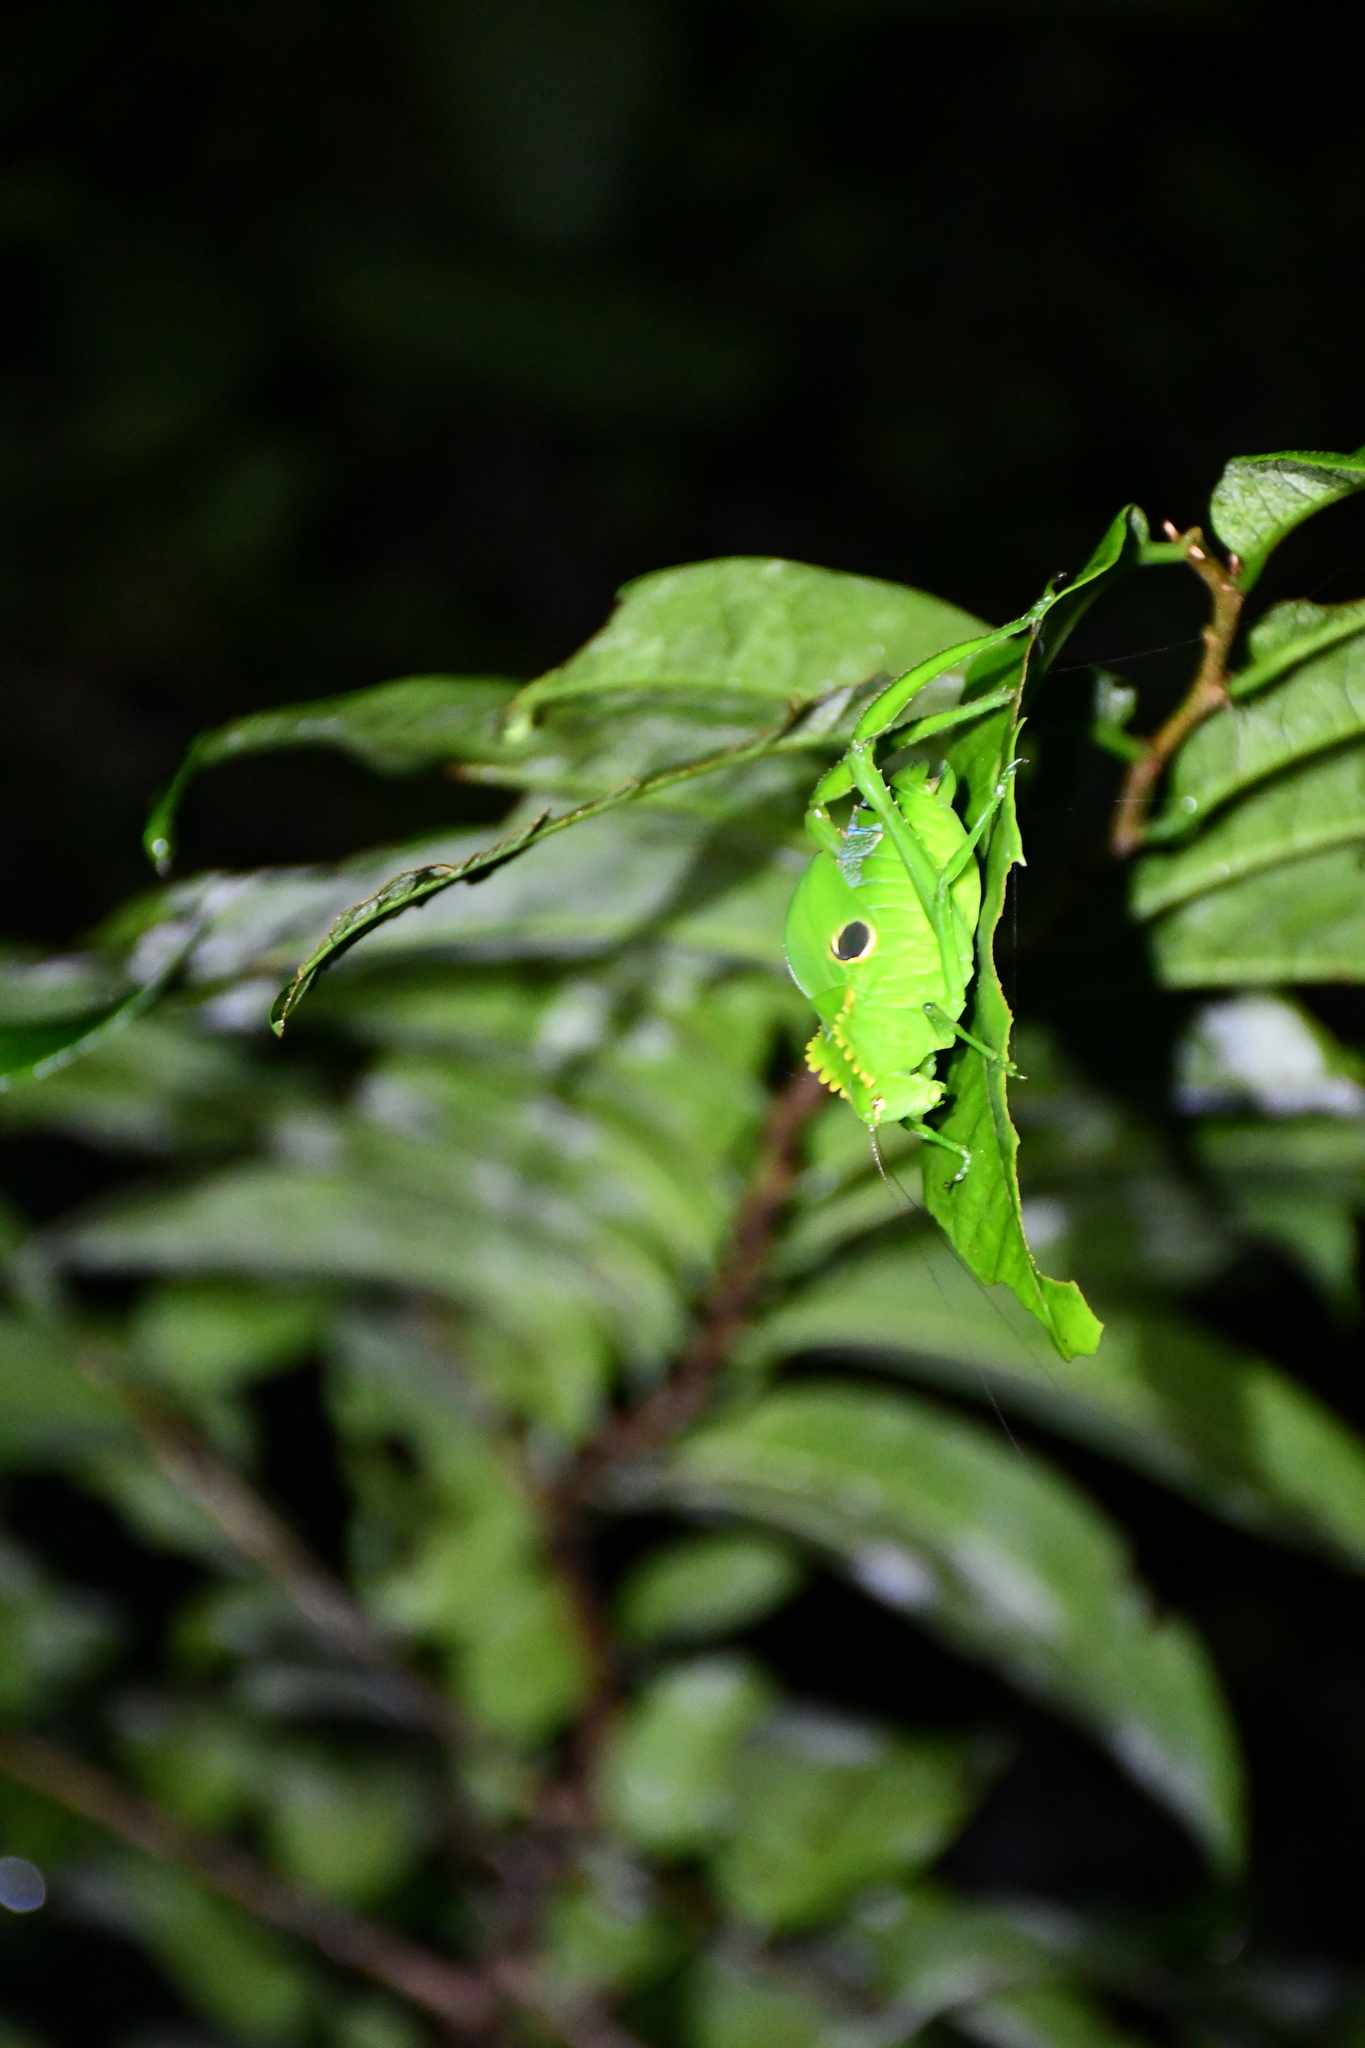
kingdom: Animalia
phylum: Arthropoda
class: Insecta
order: Orthoptera
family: Tettigoniidae
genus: Cnemidophyllum
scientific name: Cnemidophyllum citrifolium
